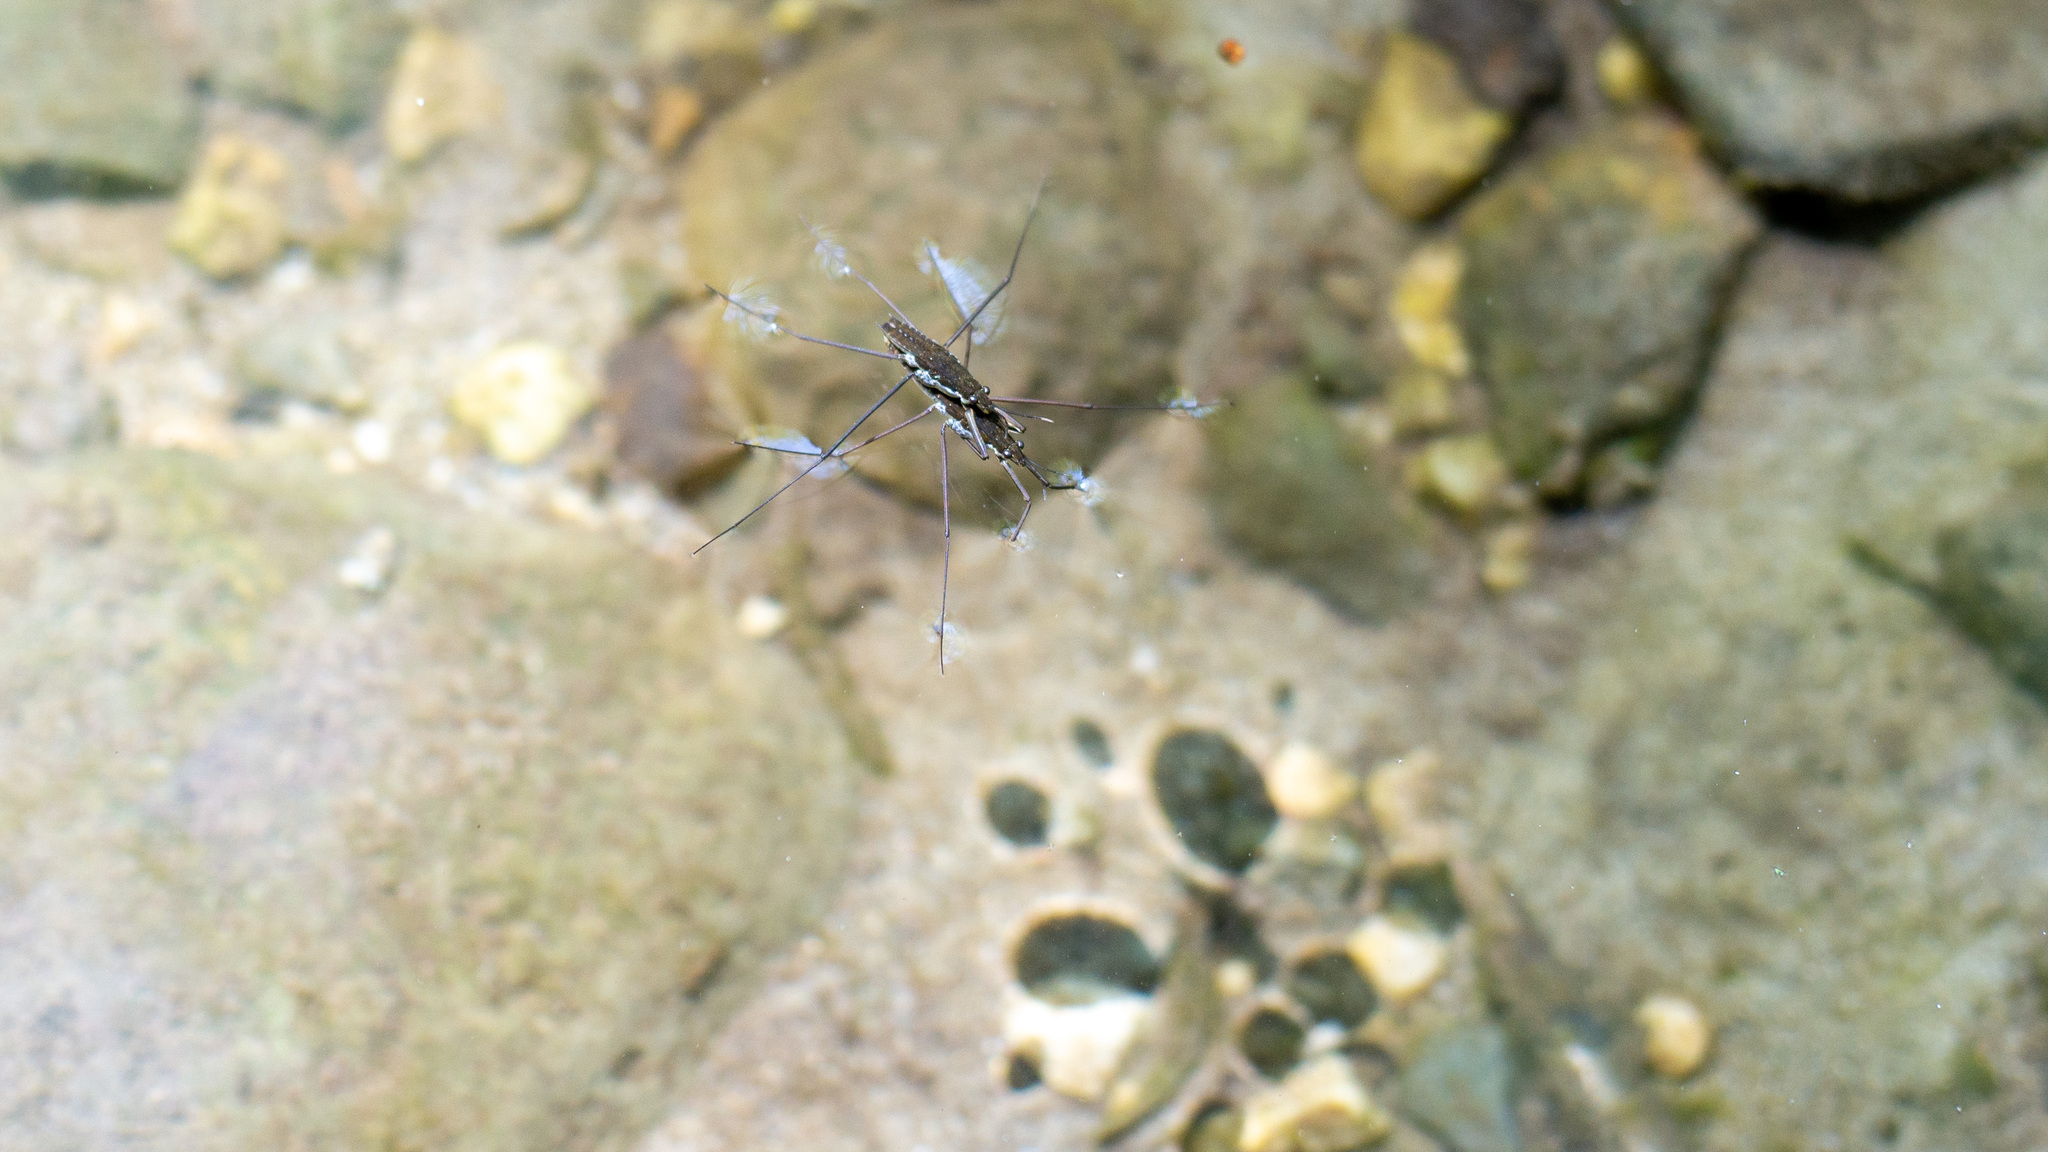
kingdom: Animalia
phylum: Arthropoda
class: Insecta
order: Hemiptera
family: Gerridae
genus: Aquarius
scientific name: Aquarius remigis
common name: Common water strider
